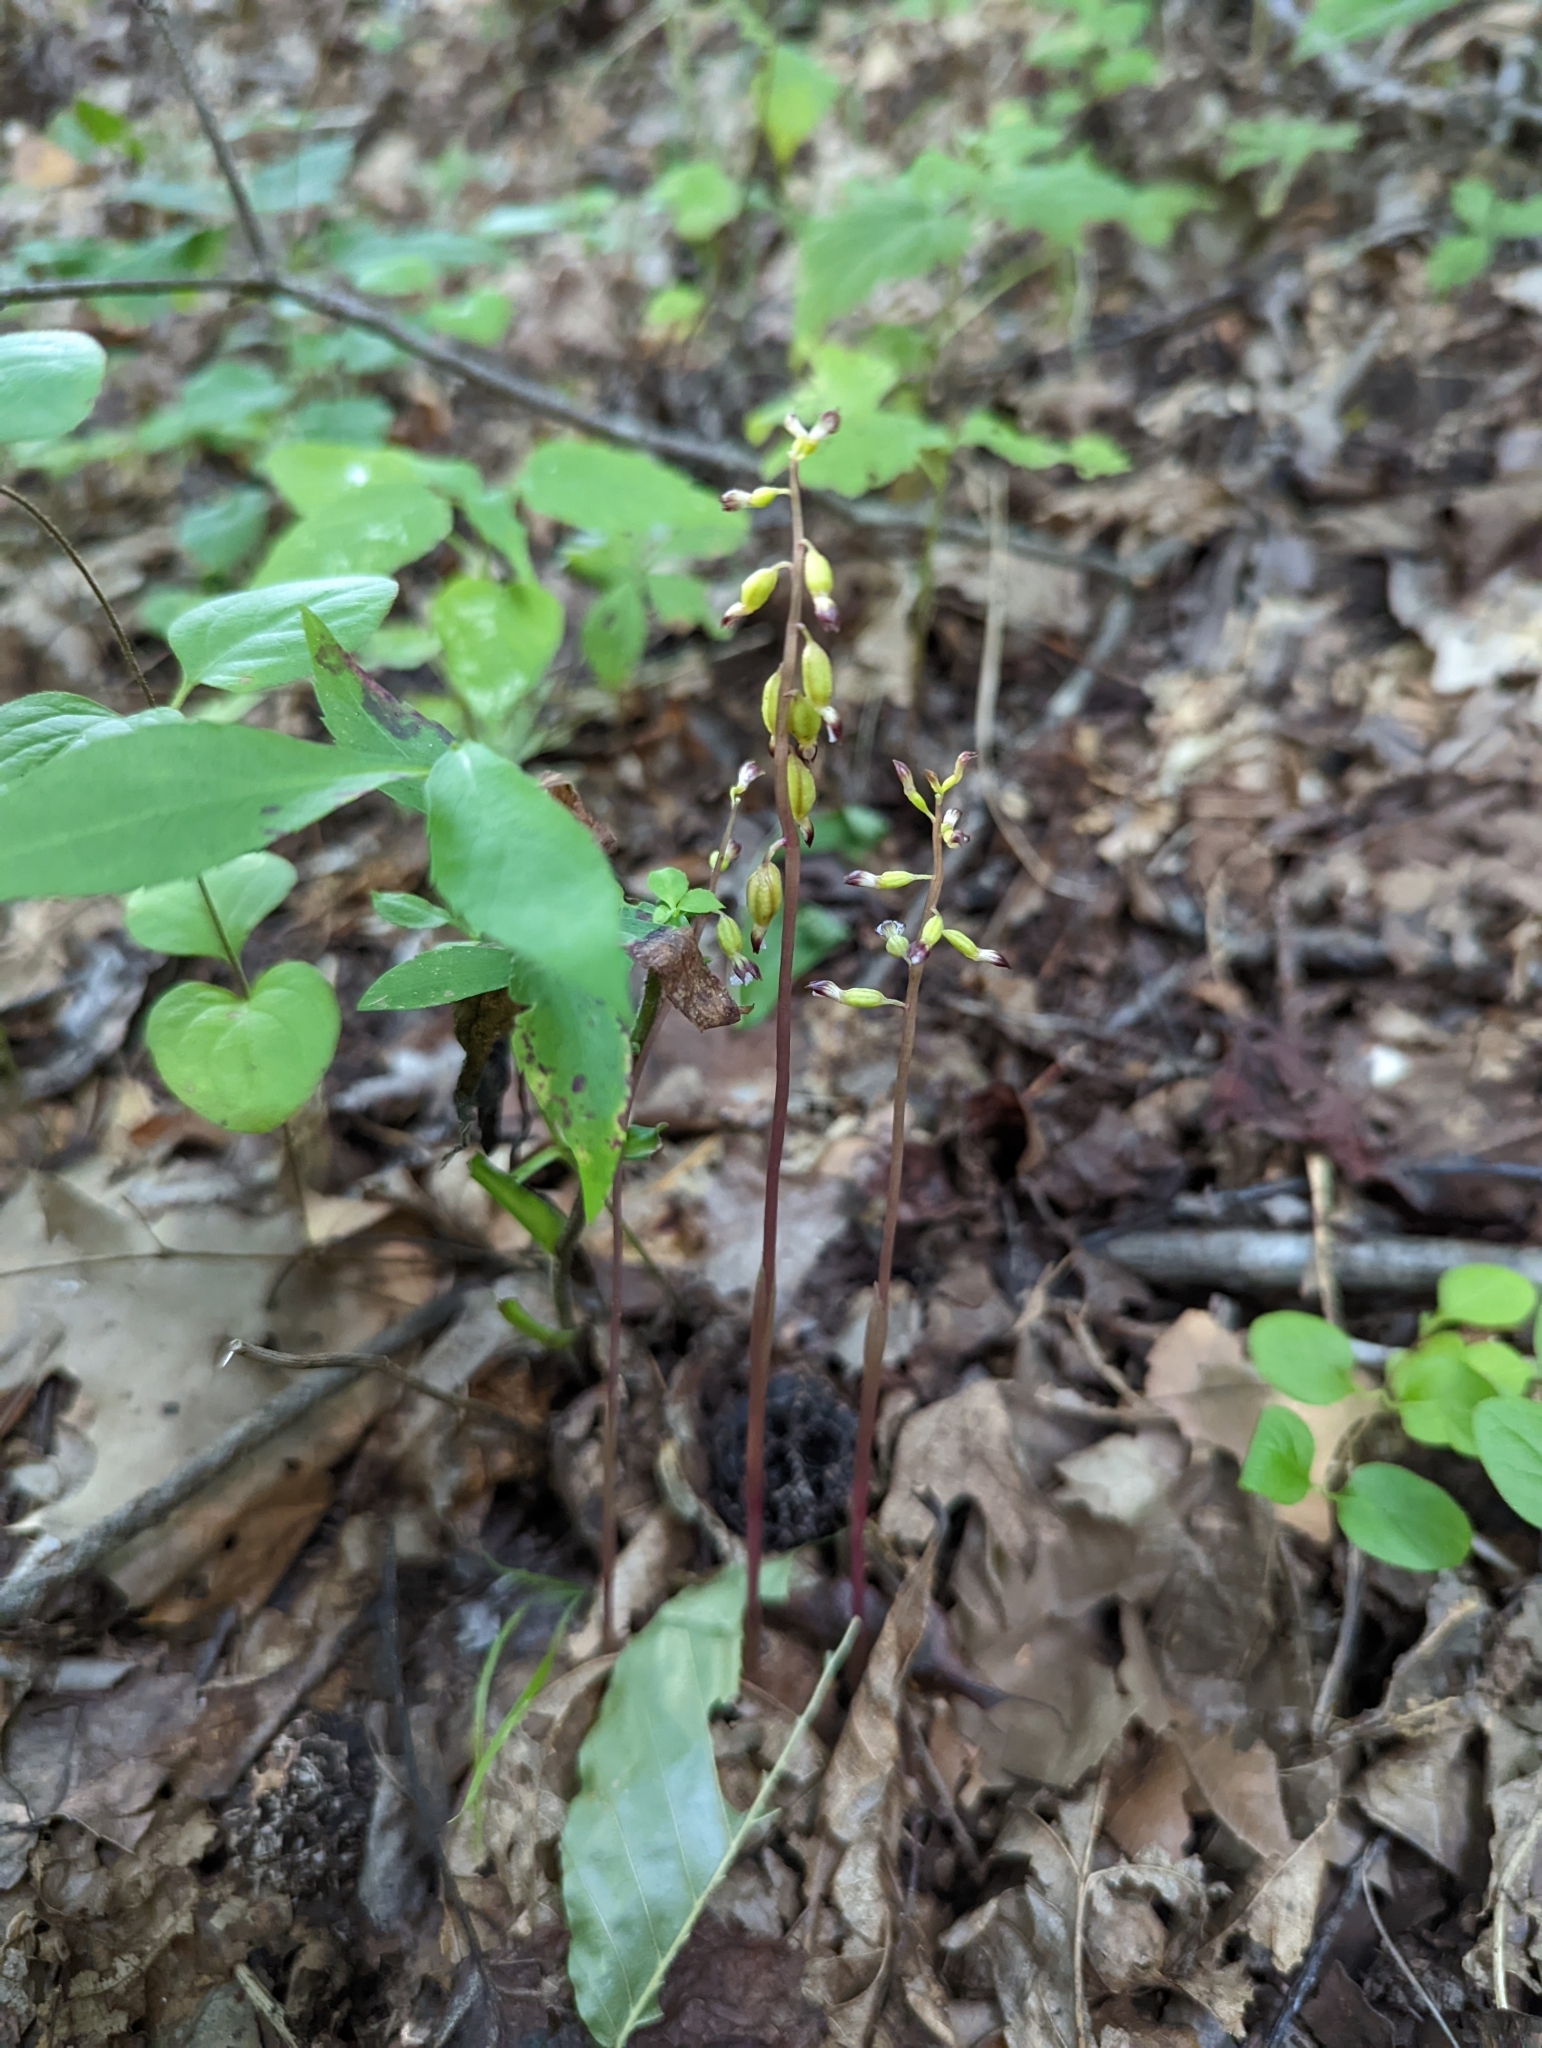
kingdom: Plantae
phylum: Tracheophyta
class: Liliopsida
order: Asparagales
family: Orchidaceae
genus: Corallorhiza
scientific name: Corallorhiza odontorhiza
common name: Autumn coralroot
